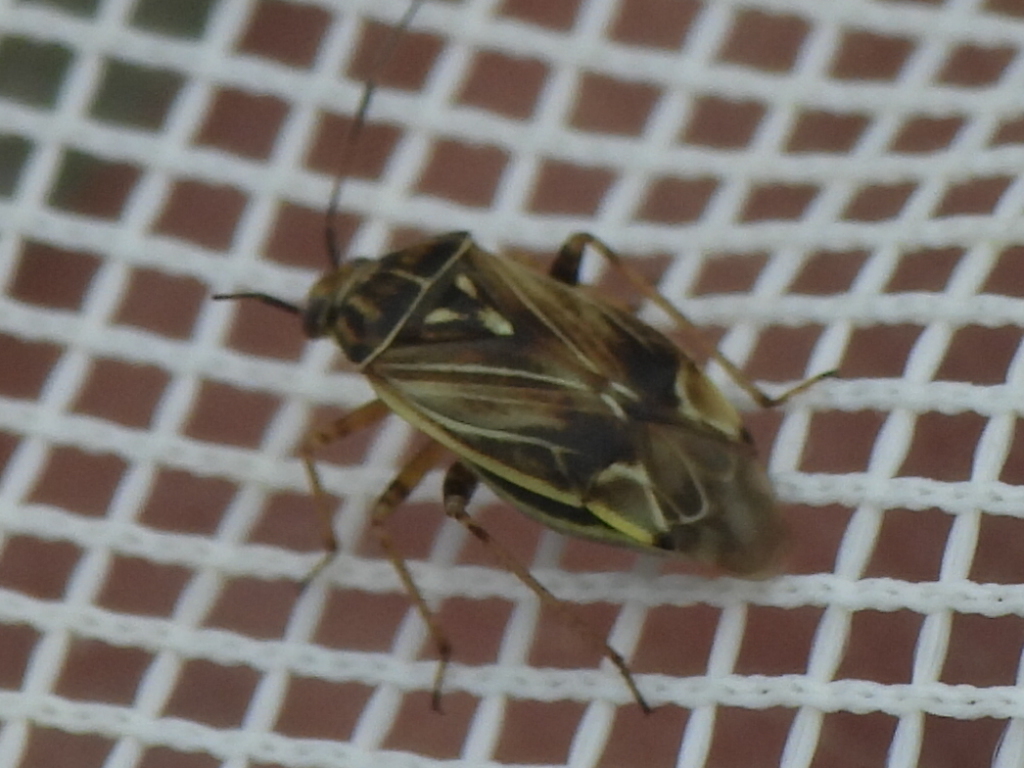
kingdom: Animalia
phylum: Arthropoda
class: Insecta
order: Hemiptera
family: Miridae
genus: Lygus
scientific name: Lygus lineolaris
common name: North american tarnished plant bug
